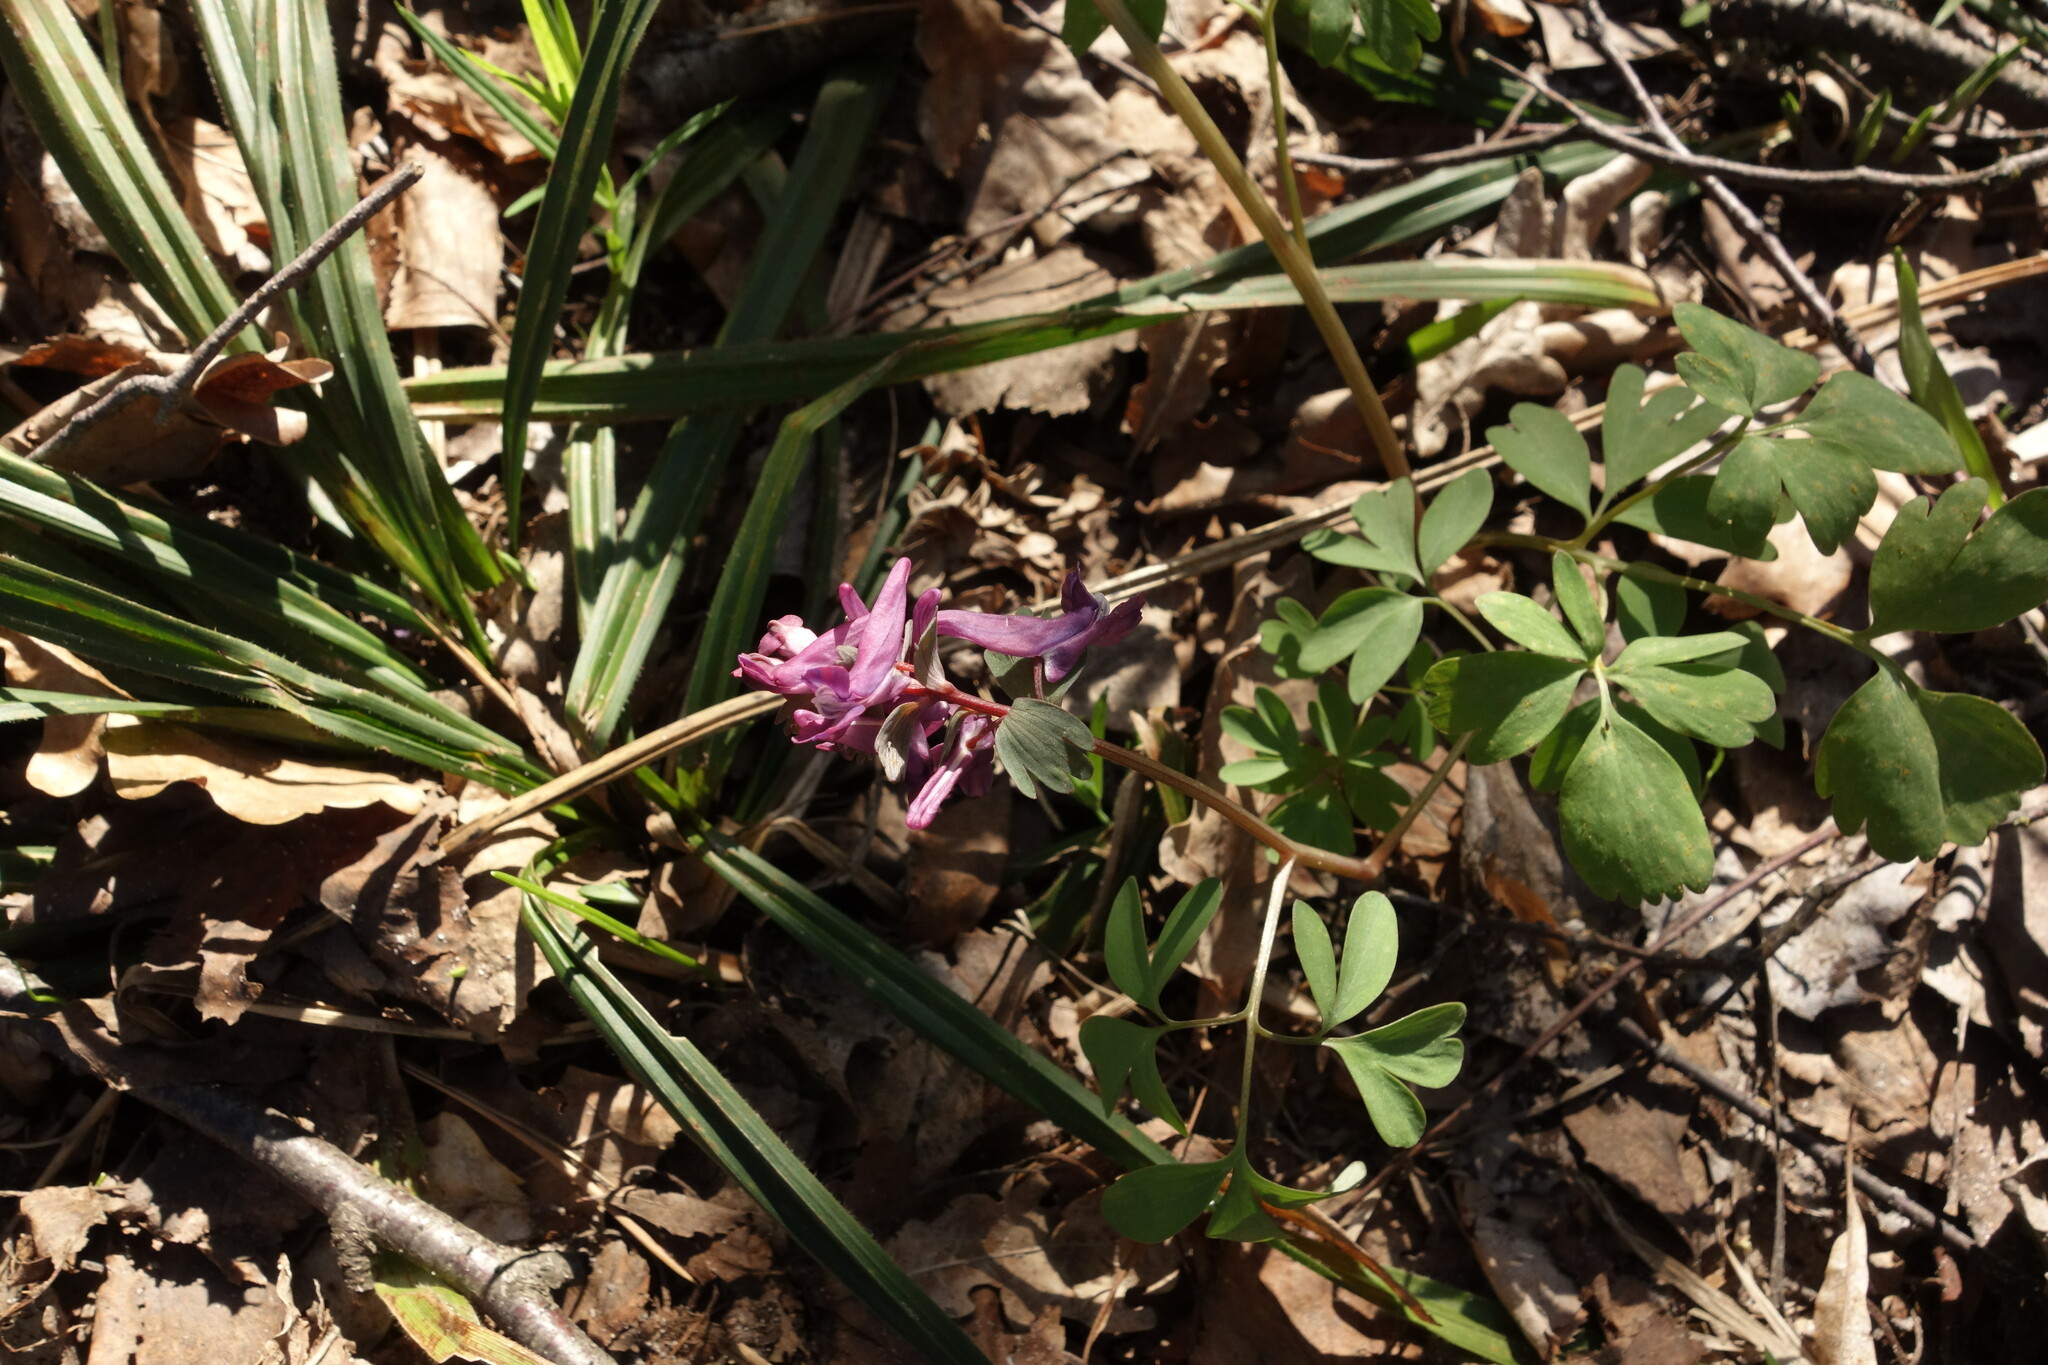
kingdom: Plantae
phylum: Tracheophyta
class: Magnoliopsida
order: Ranunculales
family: Papaveraceae
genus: Corydalis
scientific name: Corydalis solida
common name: Bird-in-a-bush
